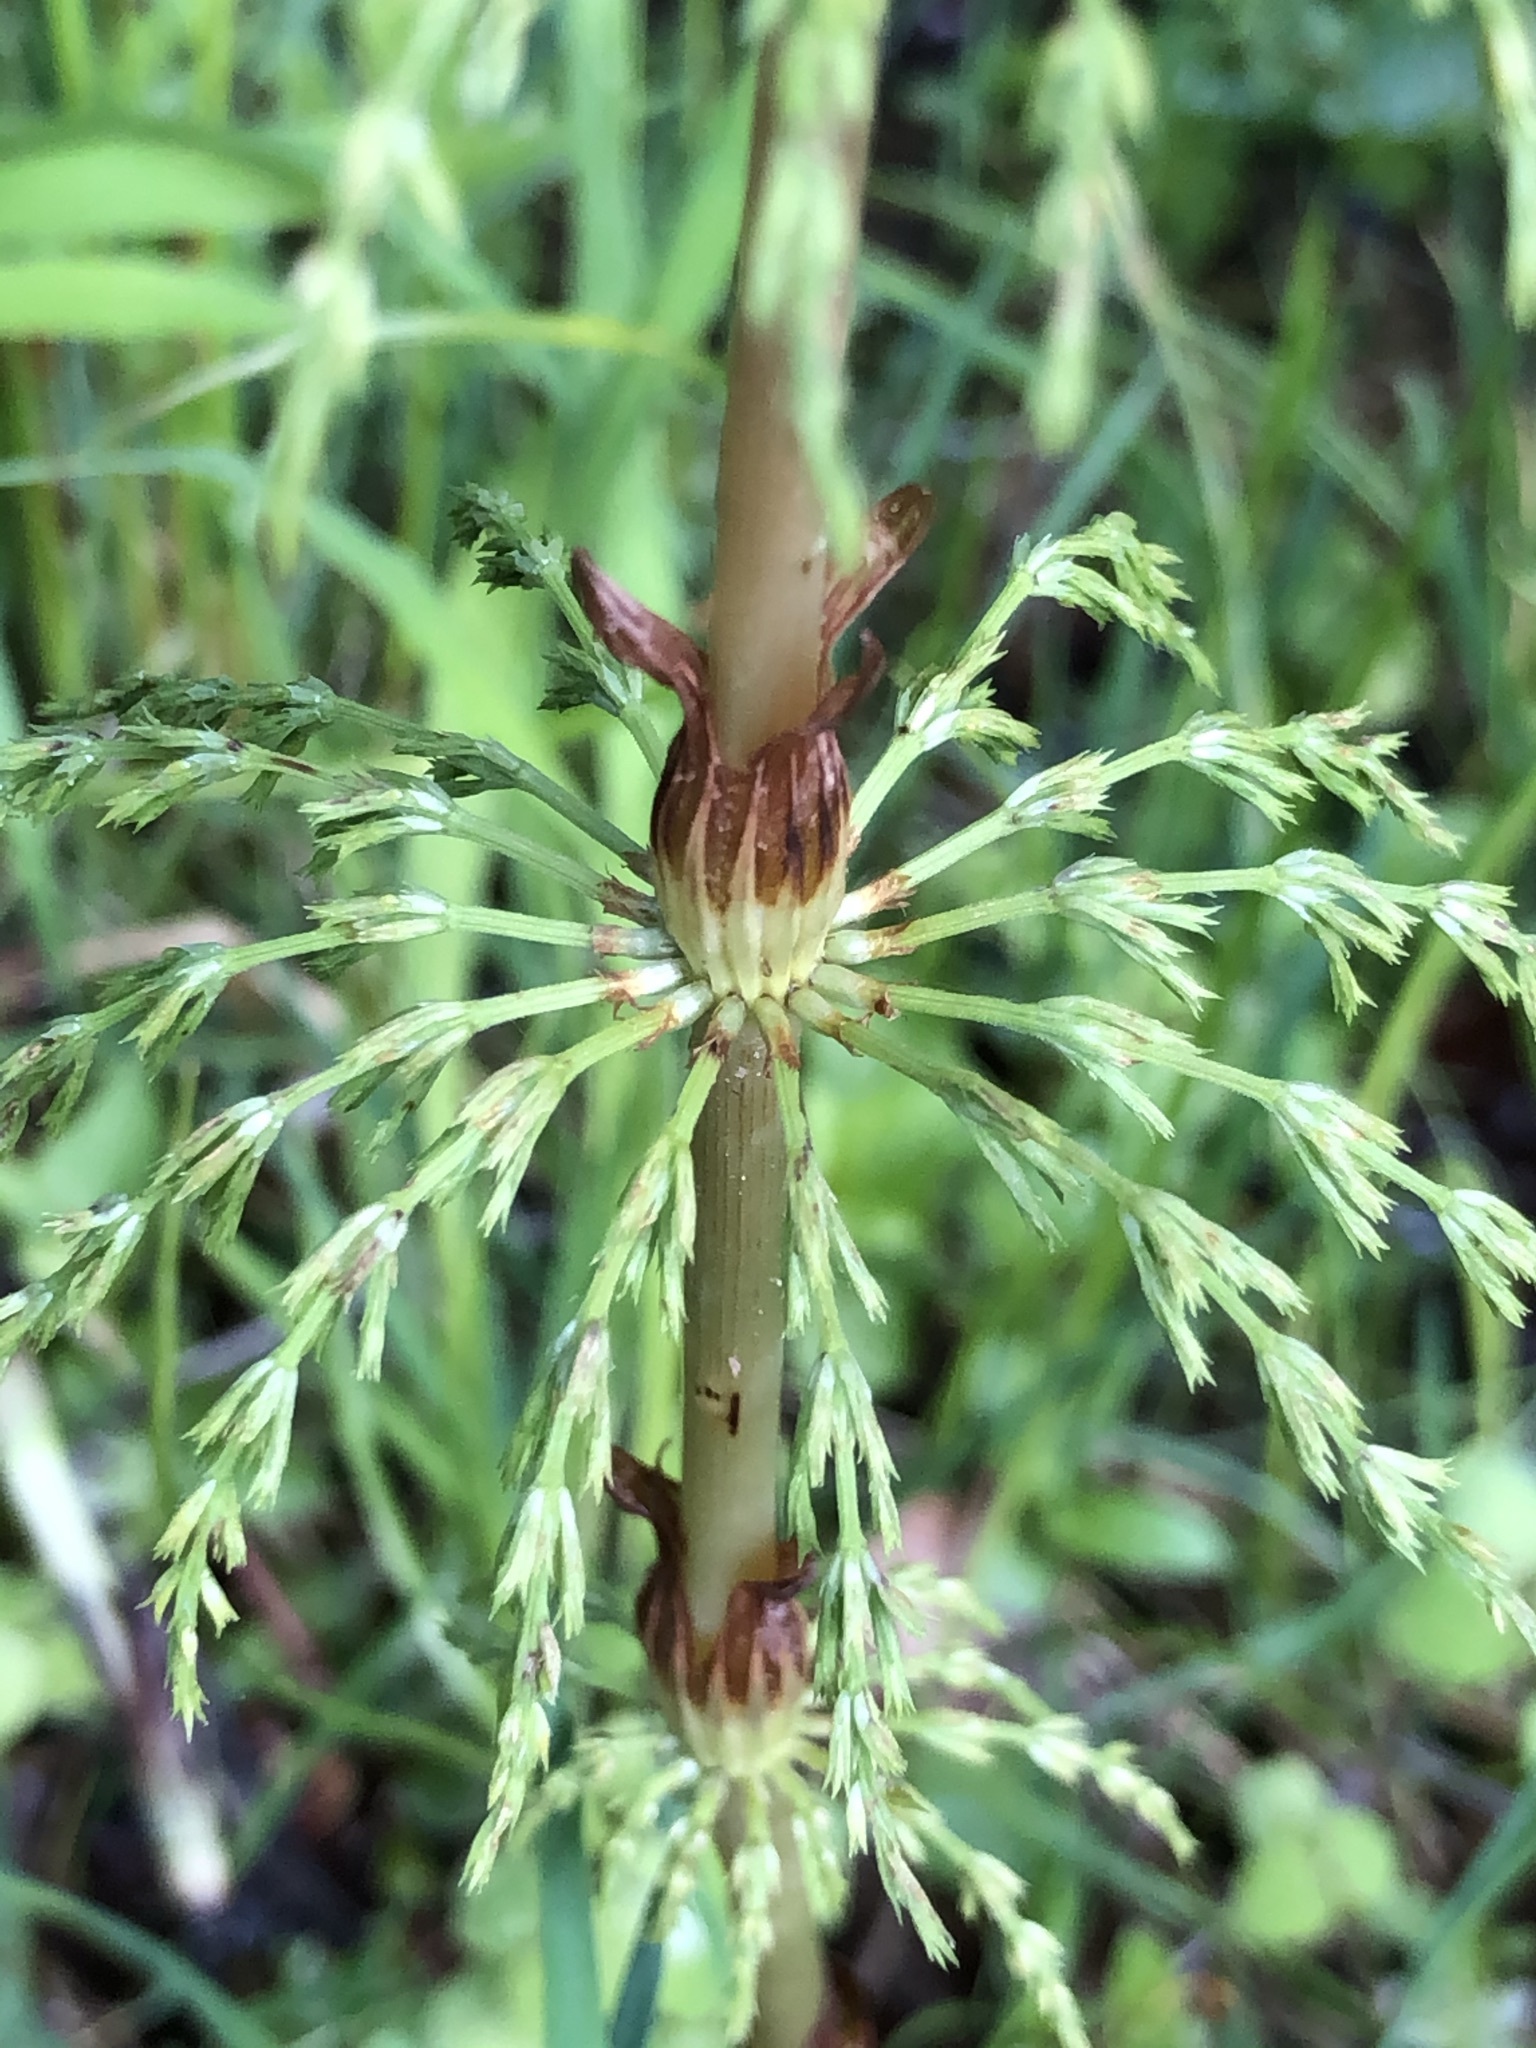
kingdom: Plantae
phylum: Tracheophyta
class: Polypodiopsida
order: Equisetales
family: Equisetaceae
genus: Equisetum
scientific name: Equisetum sylvaticum
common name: Wood horsetail
